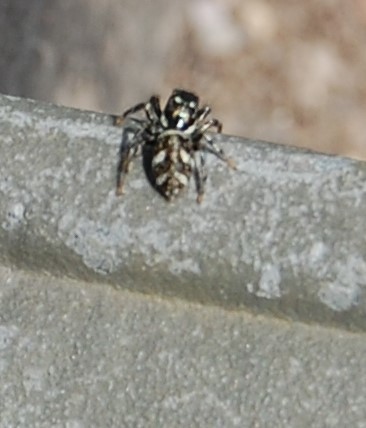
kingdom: Animalia
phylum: Arthropoda
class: Arachnida
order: Araneae
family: Salticidae
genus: Salticus
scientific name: Salticus scenicus
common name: Zebra jumper
